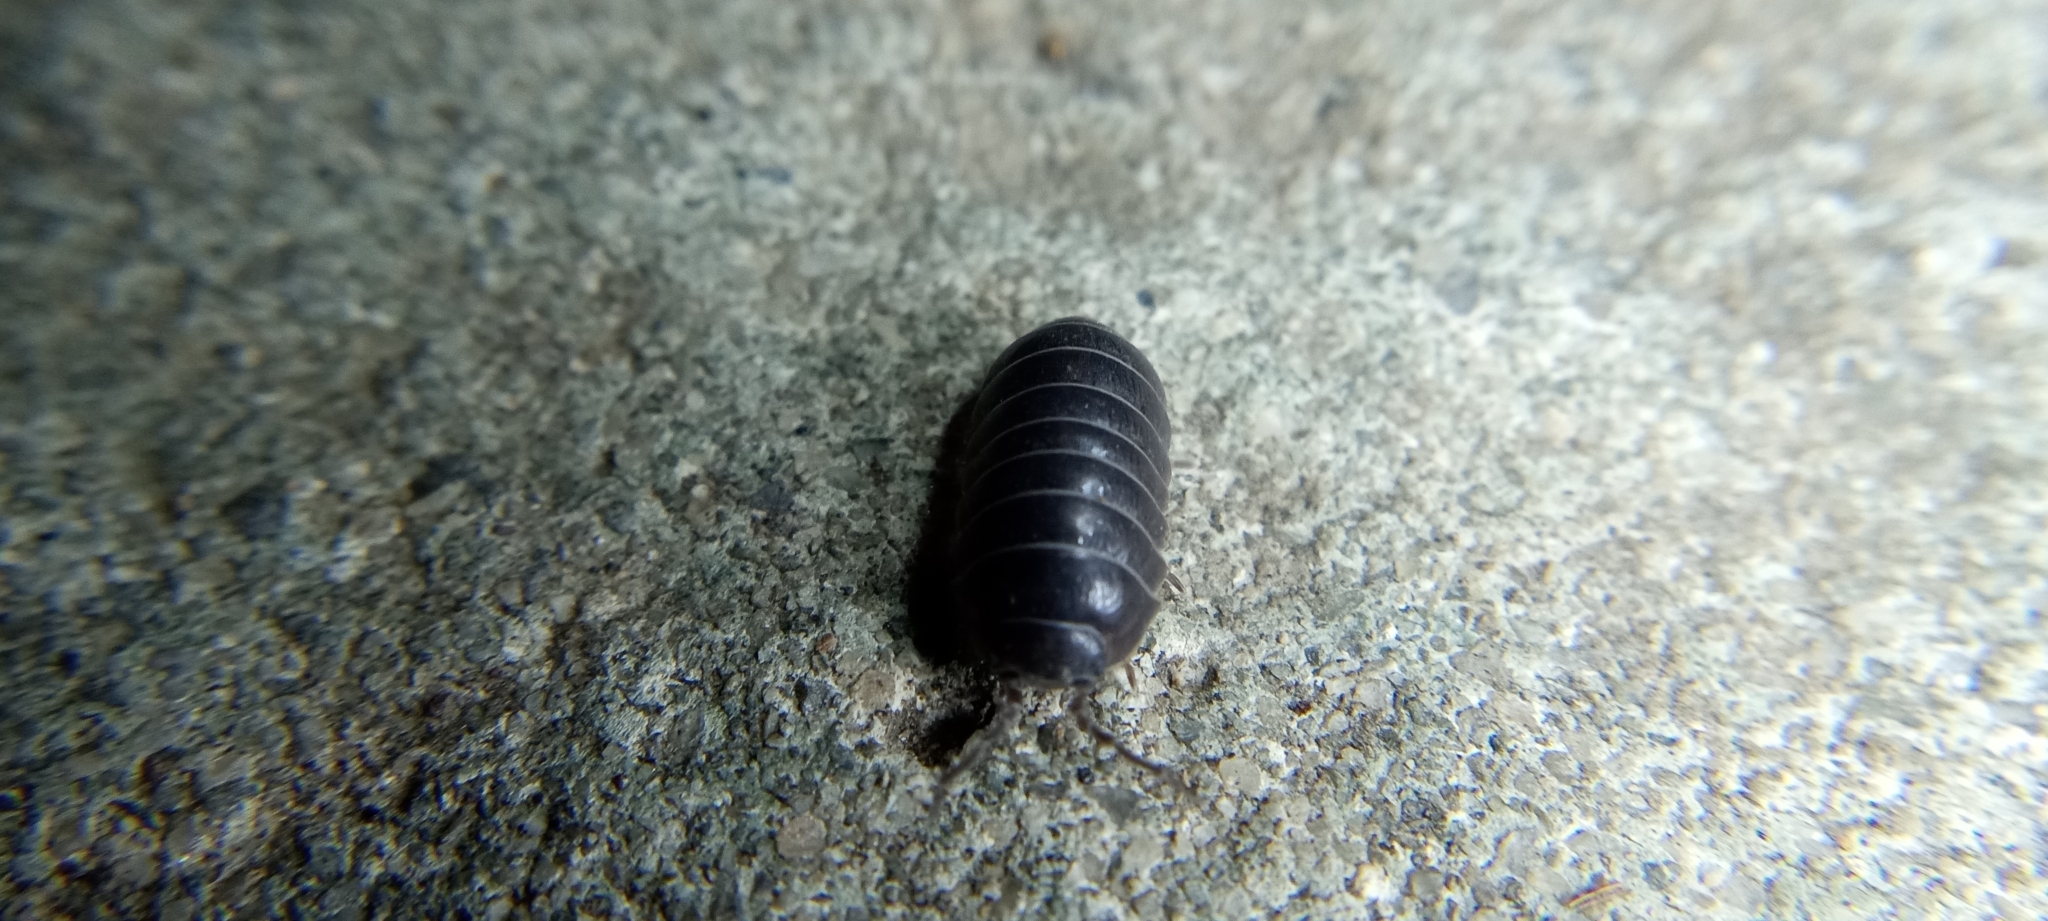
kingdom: Animalia
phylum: Arthropoda
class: Malacostraca
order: Isopoda
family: Armadillidiidae
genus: Armadillidium
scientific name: Armadillidium vulgare
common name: Common pill woodlouse
